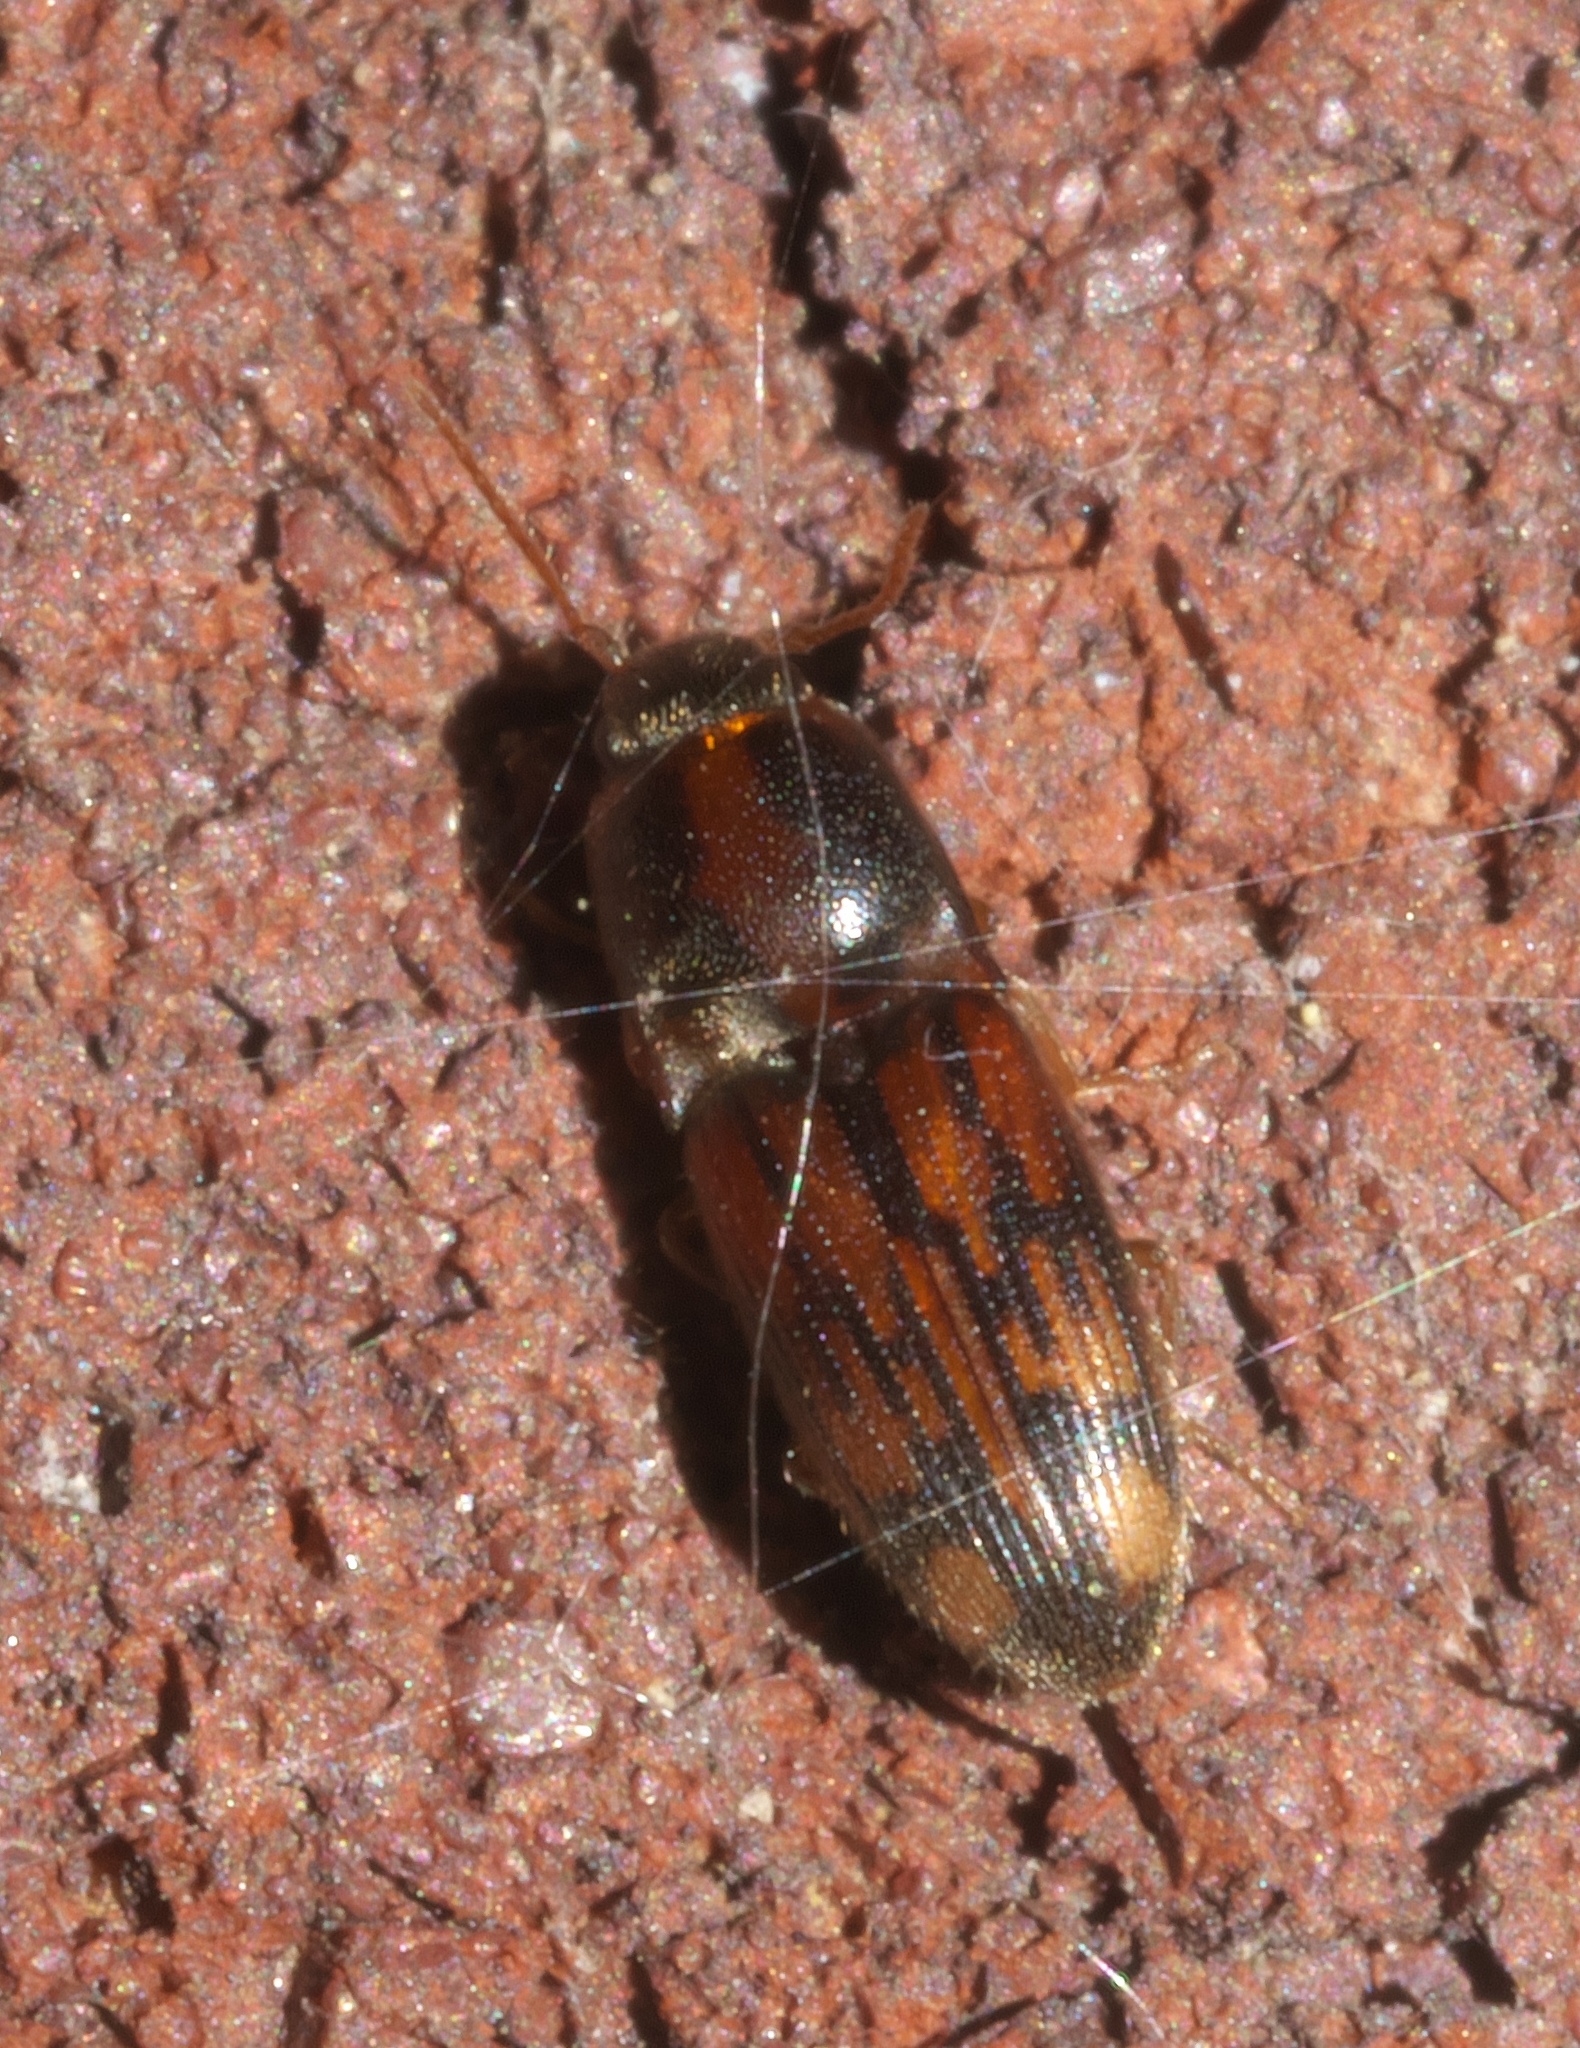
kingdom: Animalia
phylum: Arthropoda
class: Insecta
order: Coleoptera
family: Elateridae
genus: Monocrepidius
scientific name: Monocrepidius bellus
